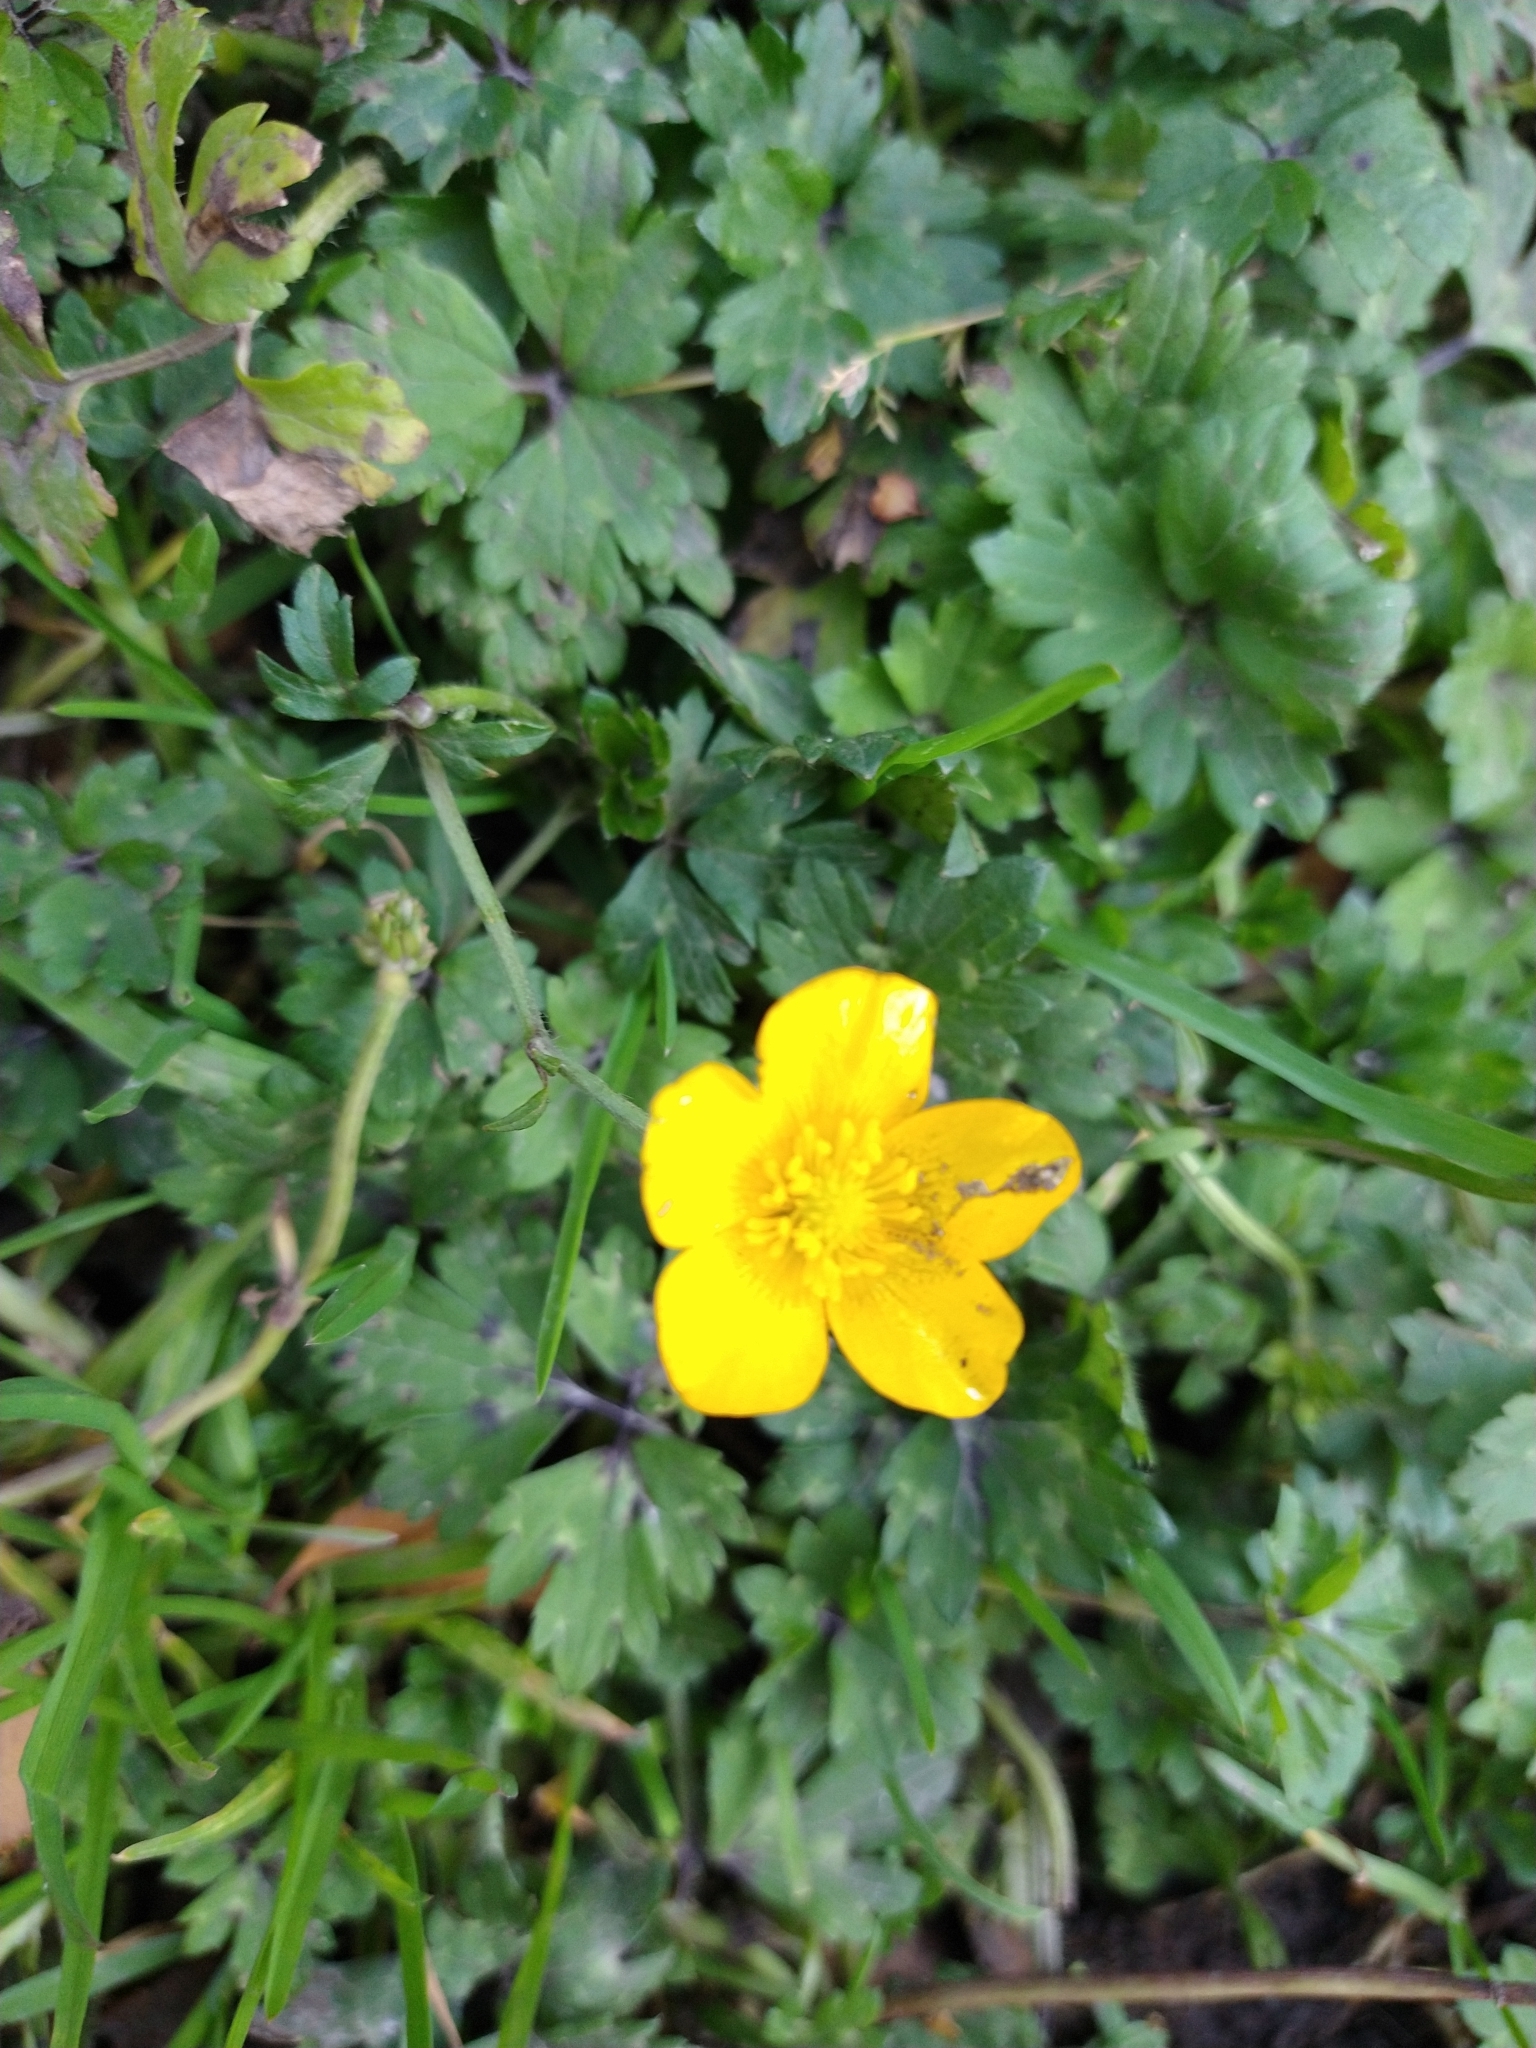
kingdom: Plantae
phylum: Tracheophyta
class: Magnoliopsida
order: Ranunculales
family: Ranunculaceae
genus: Ranunculus
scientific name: Ranunculus repens
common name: Creeping buttercup
